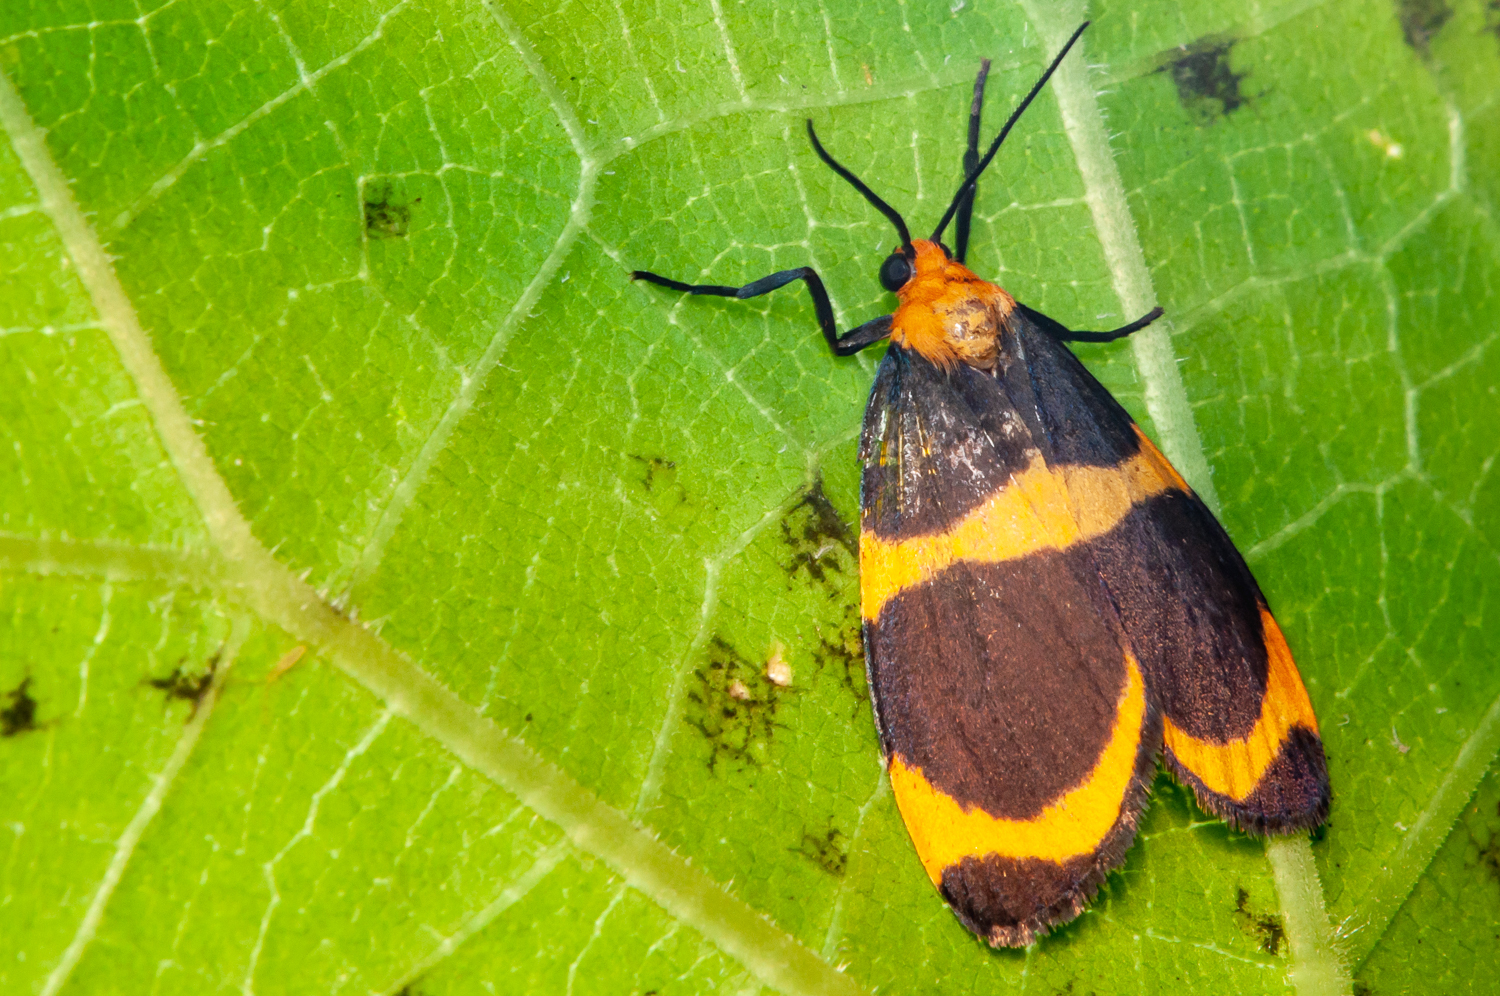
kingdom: Animalia
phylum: Arthropoda
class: Insecta
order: Lepidoptera
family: Erebidae
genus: Eudesmia
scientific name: Eudesmia menea
